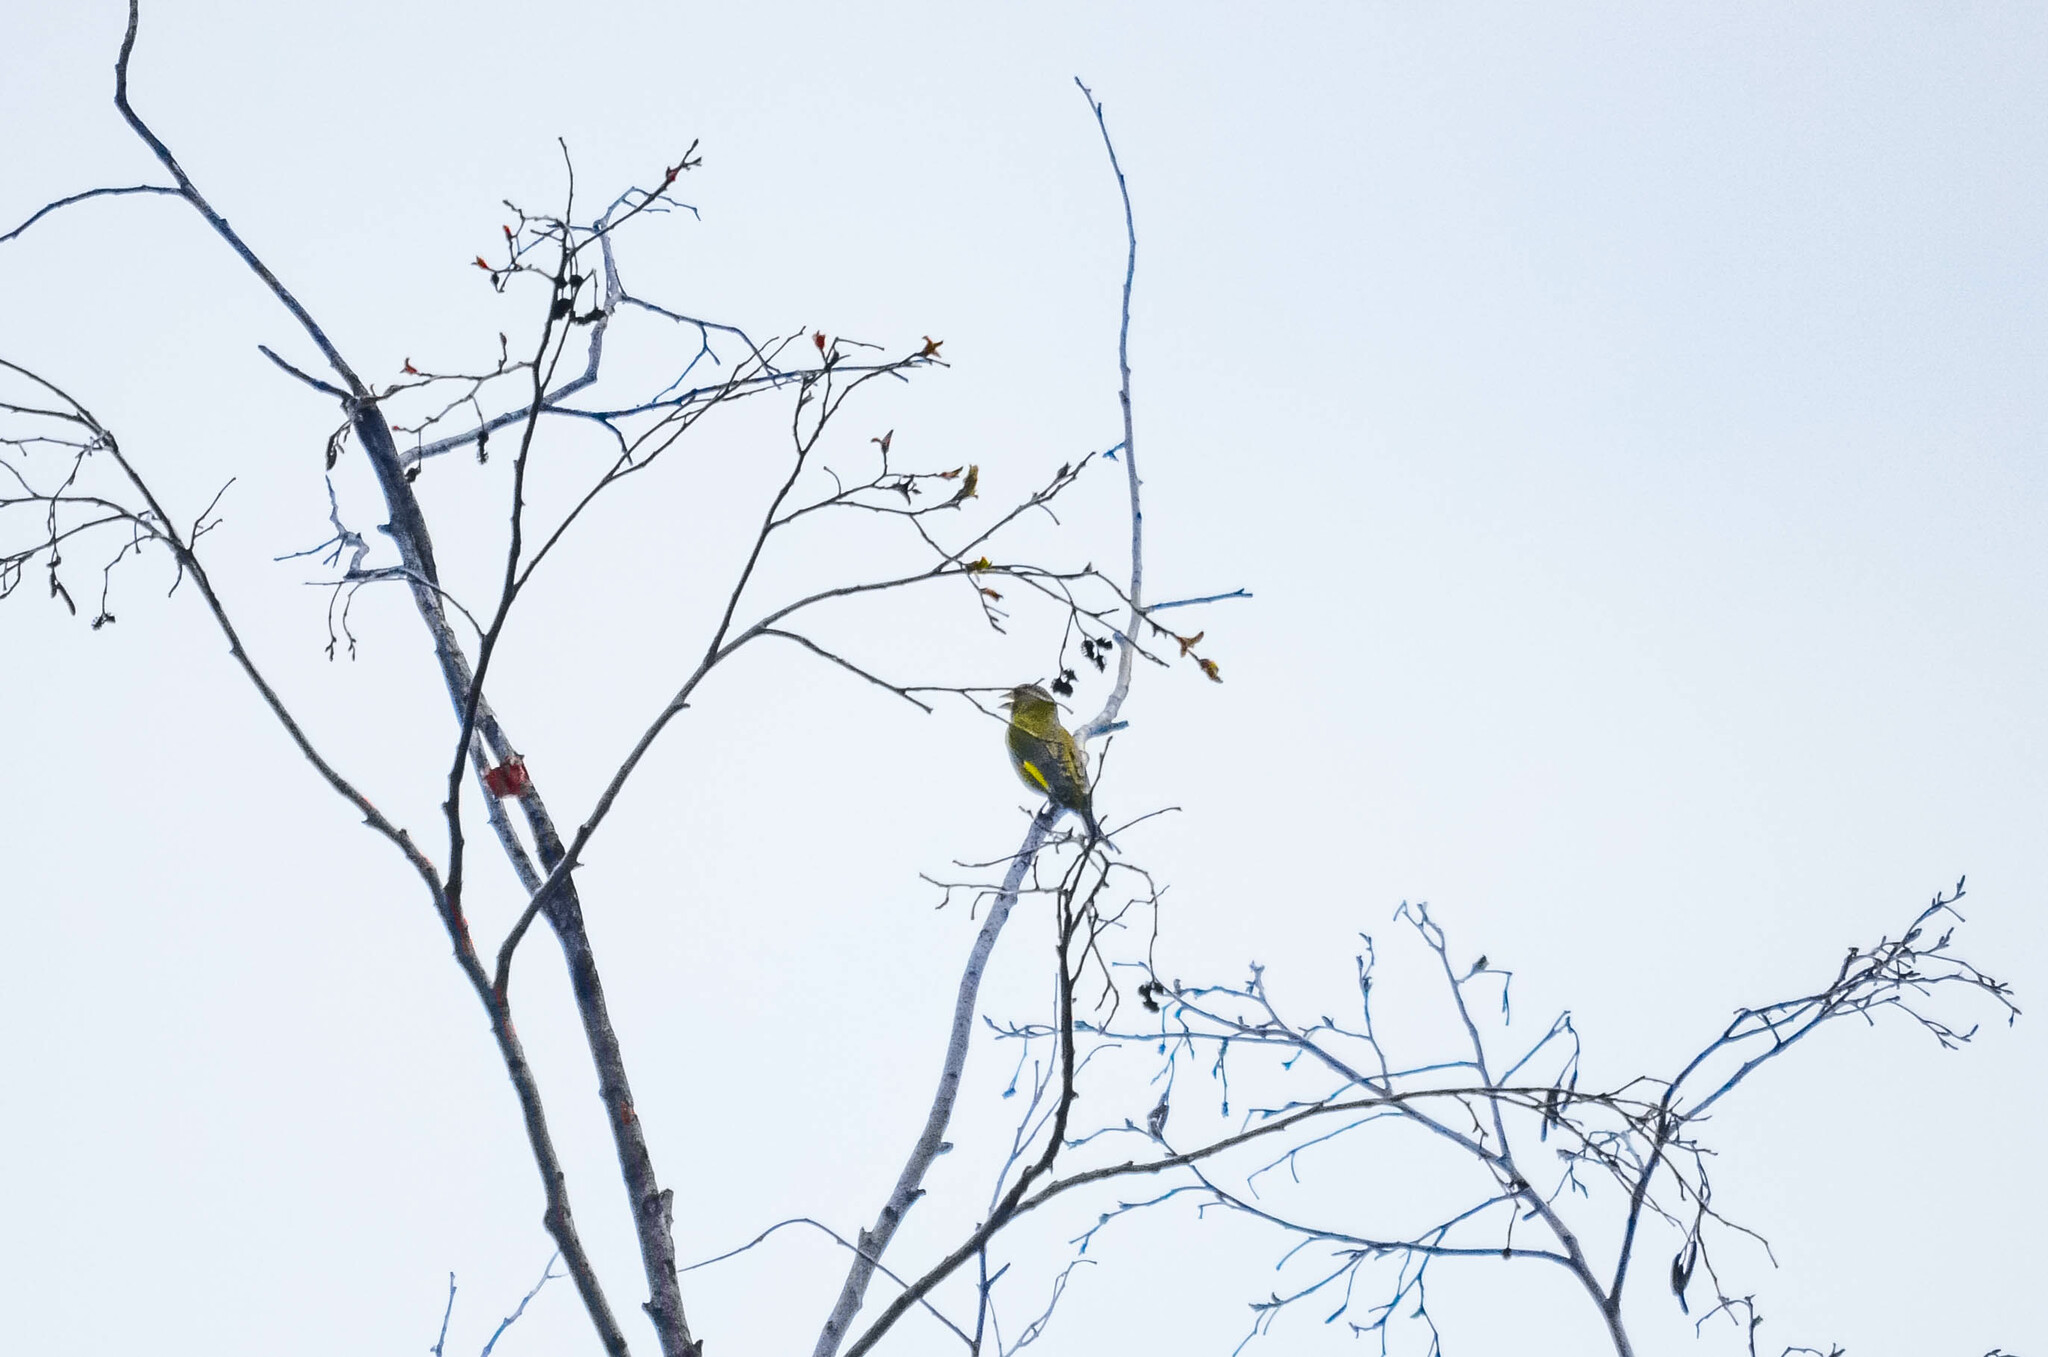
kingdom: Plantae
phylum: Tracheophyta
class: Liliopsida
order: Poales
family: Poaceae
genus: Chloris
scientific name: Chloris chloris
